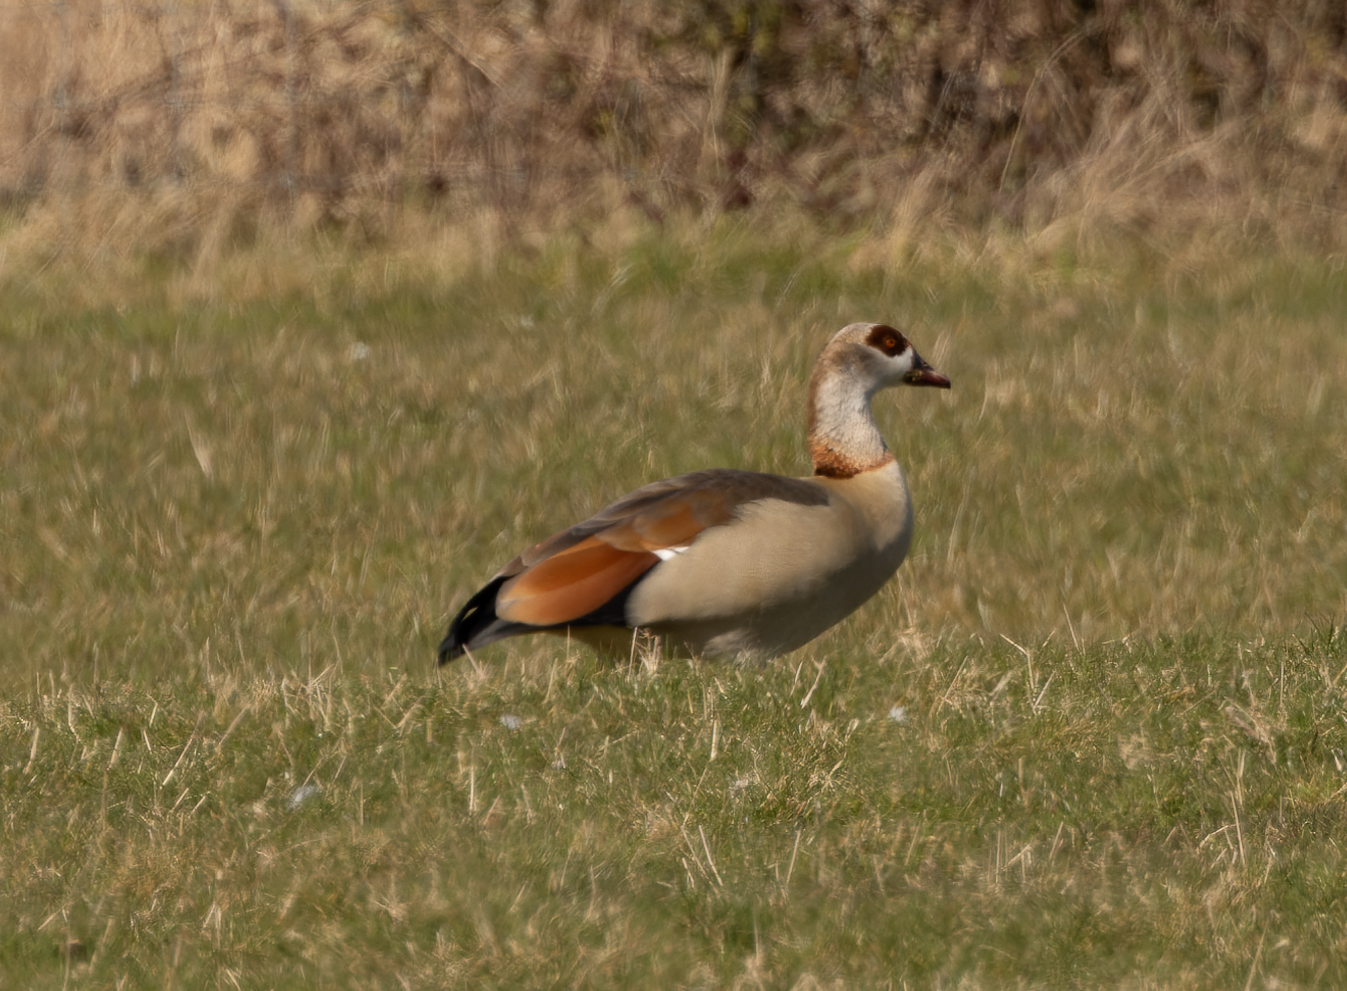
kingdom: Animalia
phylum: Chordata
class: Aves
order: Anseriformes
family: Anatidae
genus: Alopochen
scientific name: Alopochen aegyptiaca
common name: Egyptian goose
